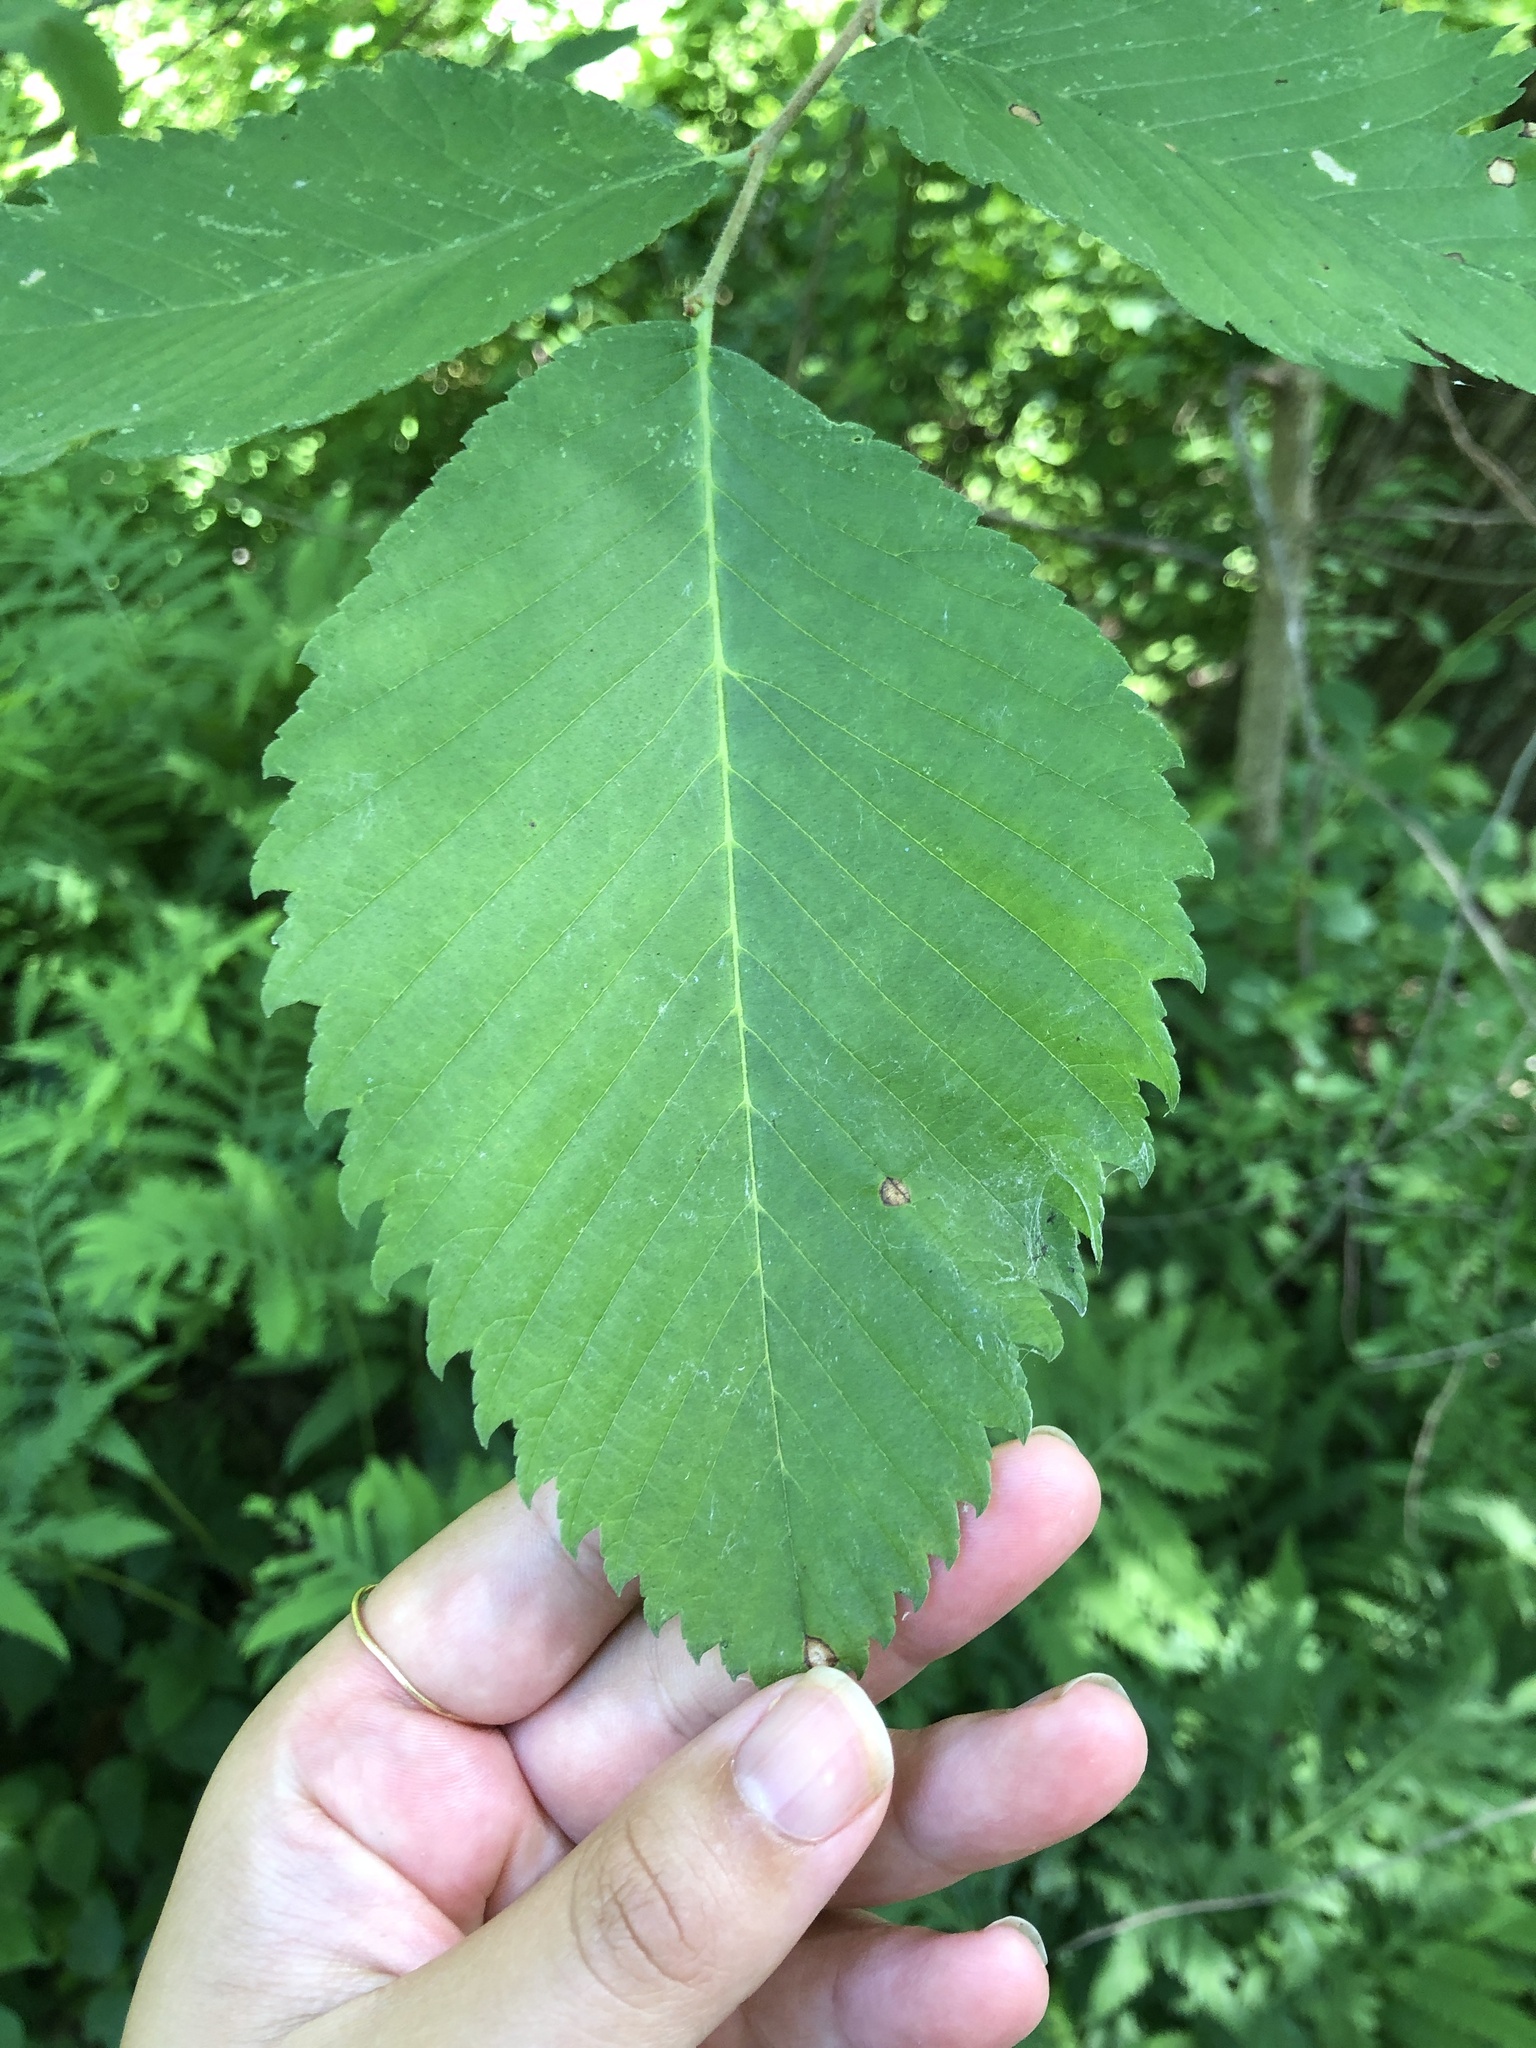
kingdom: Plantae
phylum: Tracheophyta
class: Magnoliopsida
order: Rosales
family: Ulmaceae
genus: Ulmus
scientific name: Ulmus americana
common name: American elm
